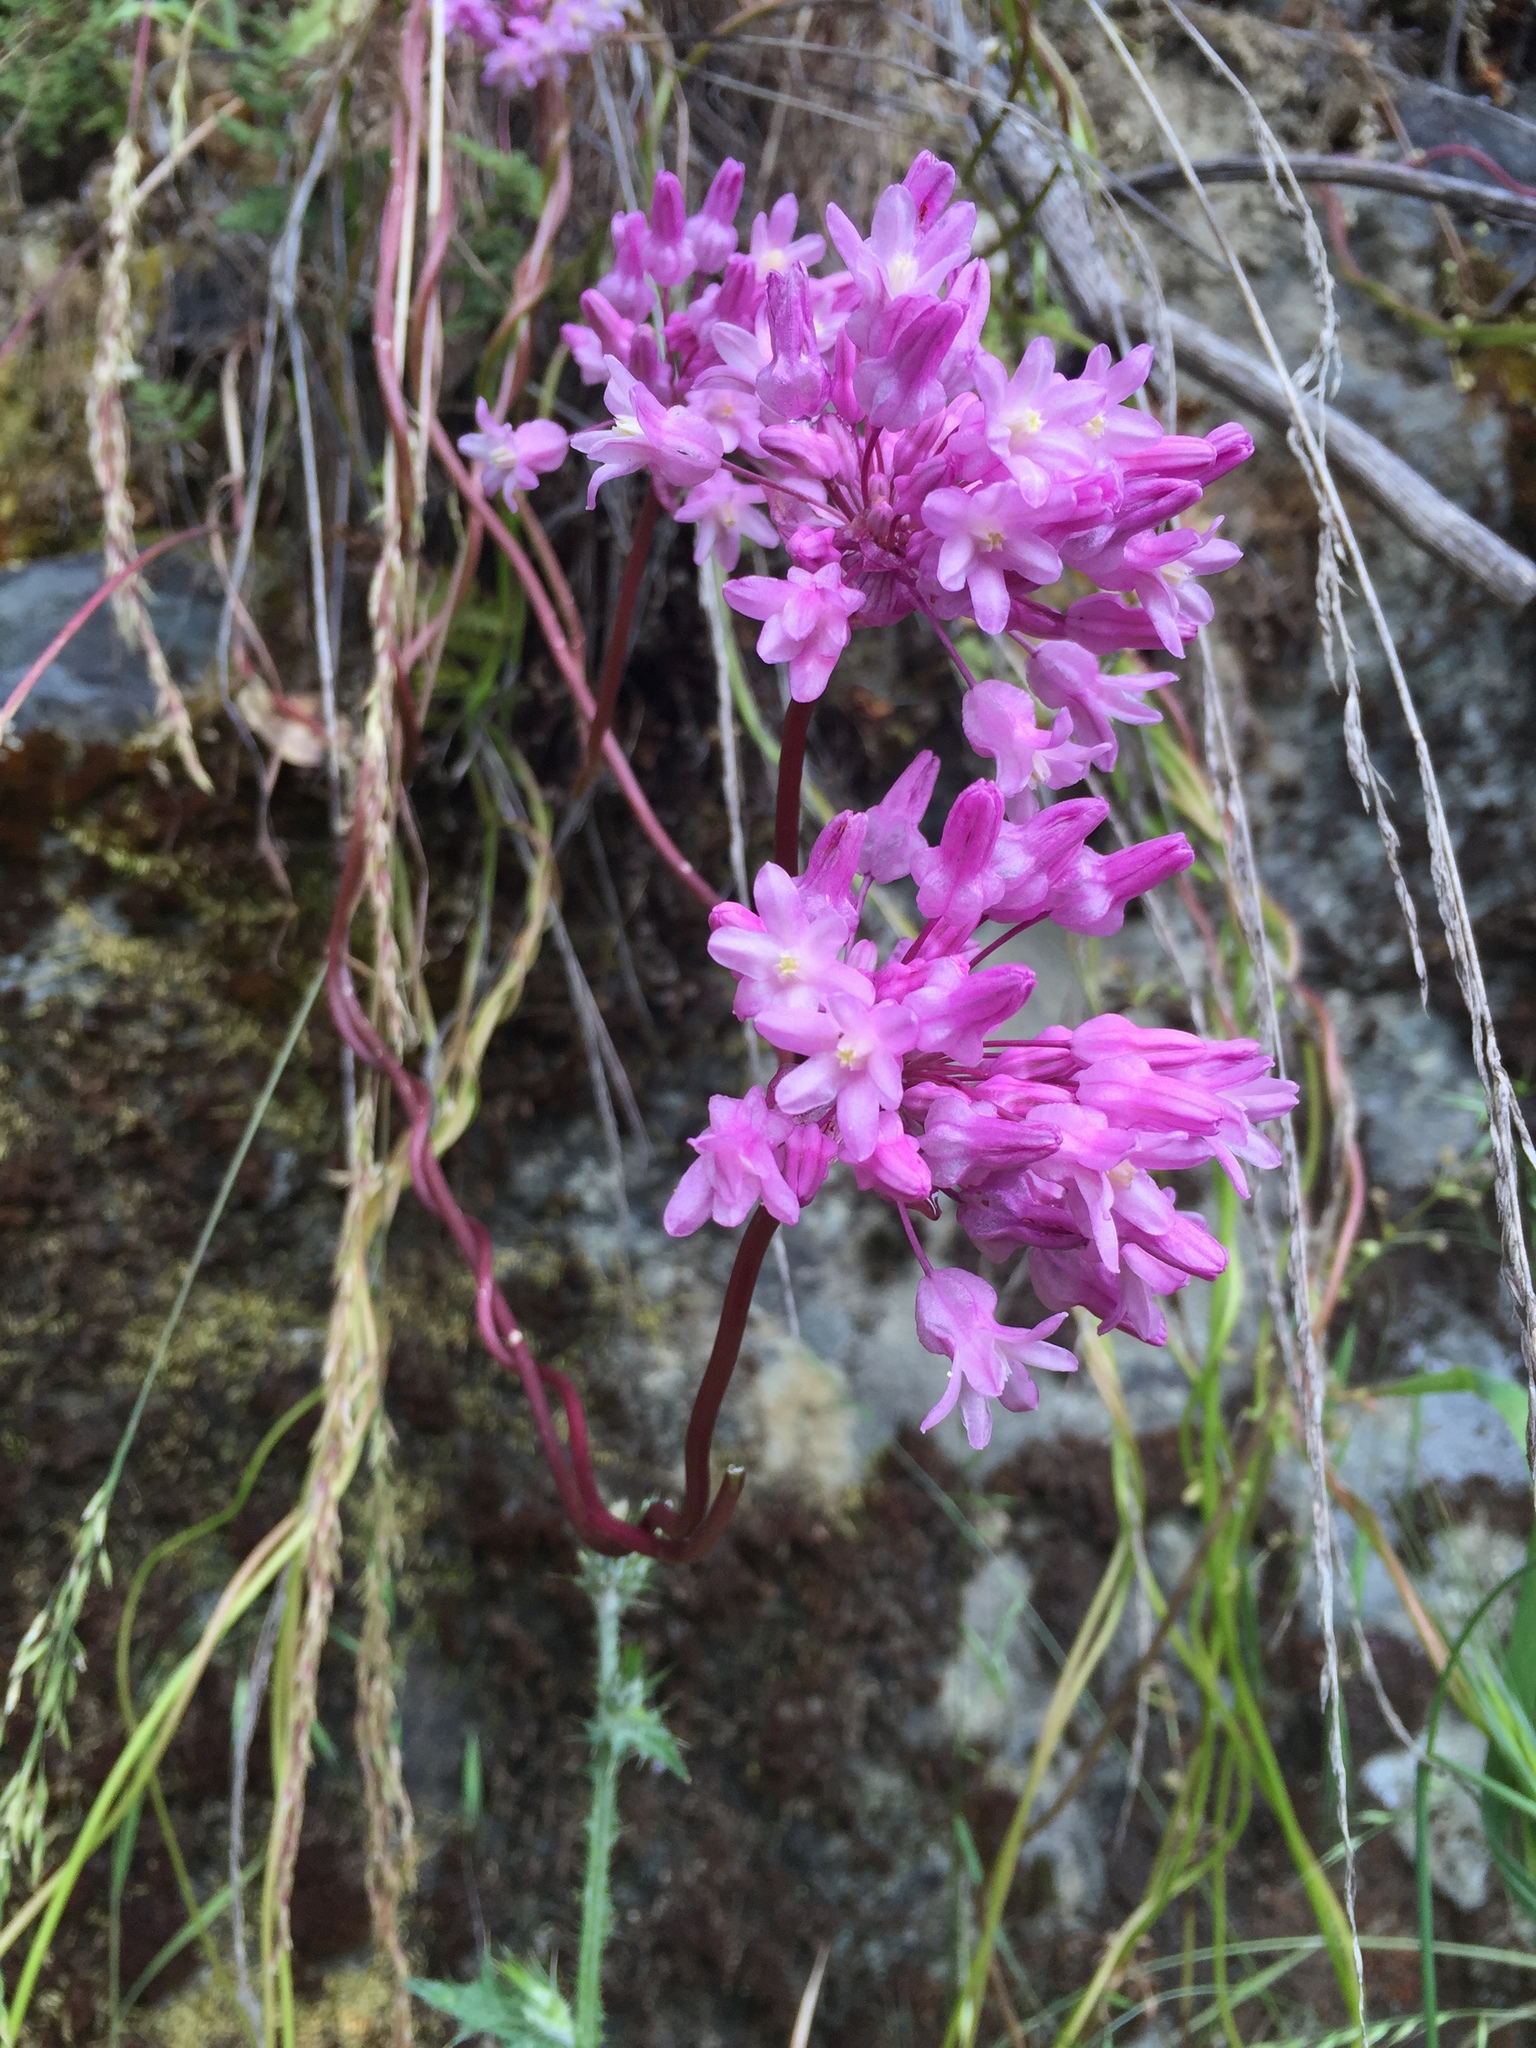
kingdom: Plantae
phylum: Tracheophyta
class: Liliopsida
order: Asparagales
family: Asparagaceae
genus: Dichelostemma
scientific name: Dichelostemma volubile
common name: Trining brodiaea
